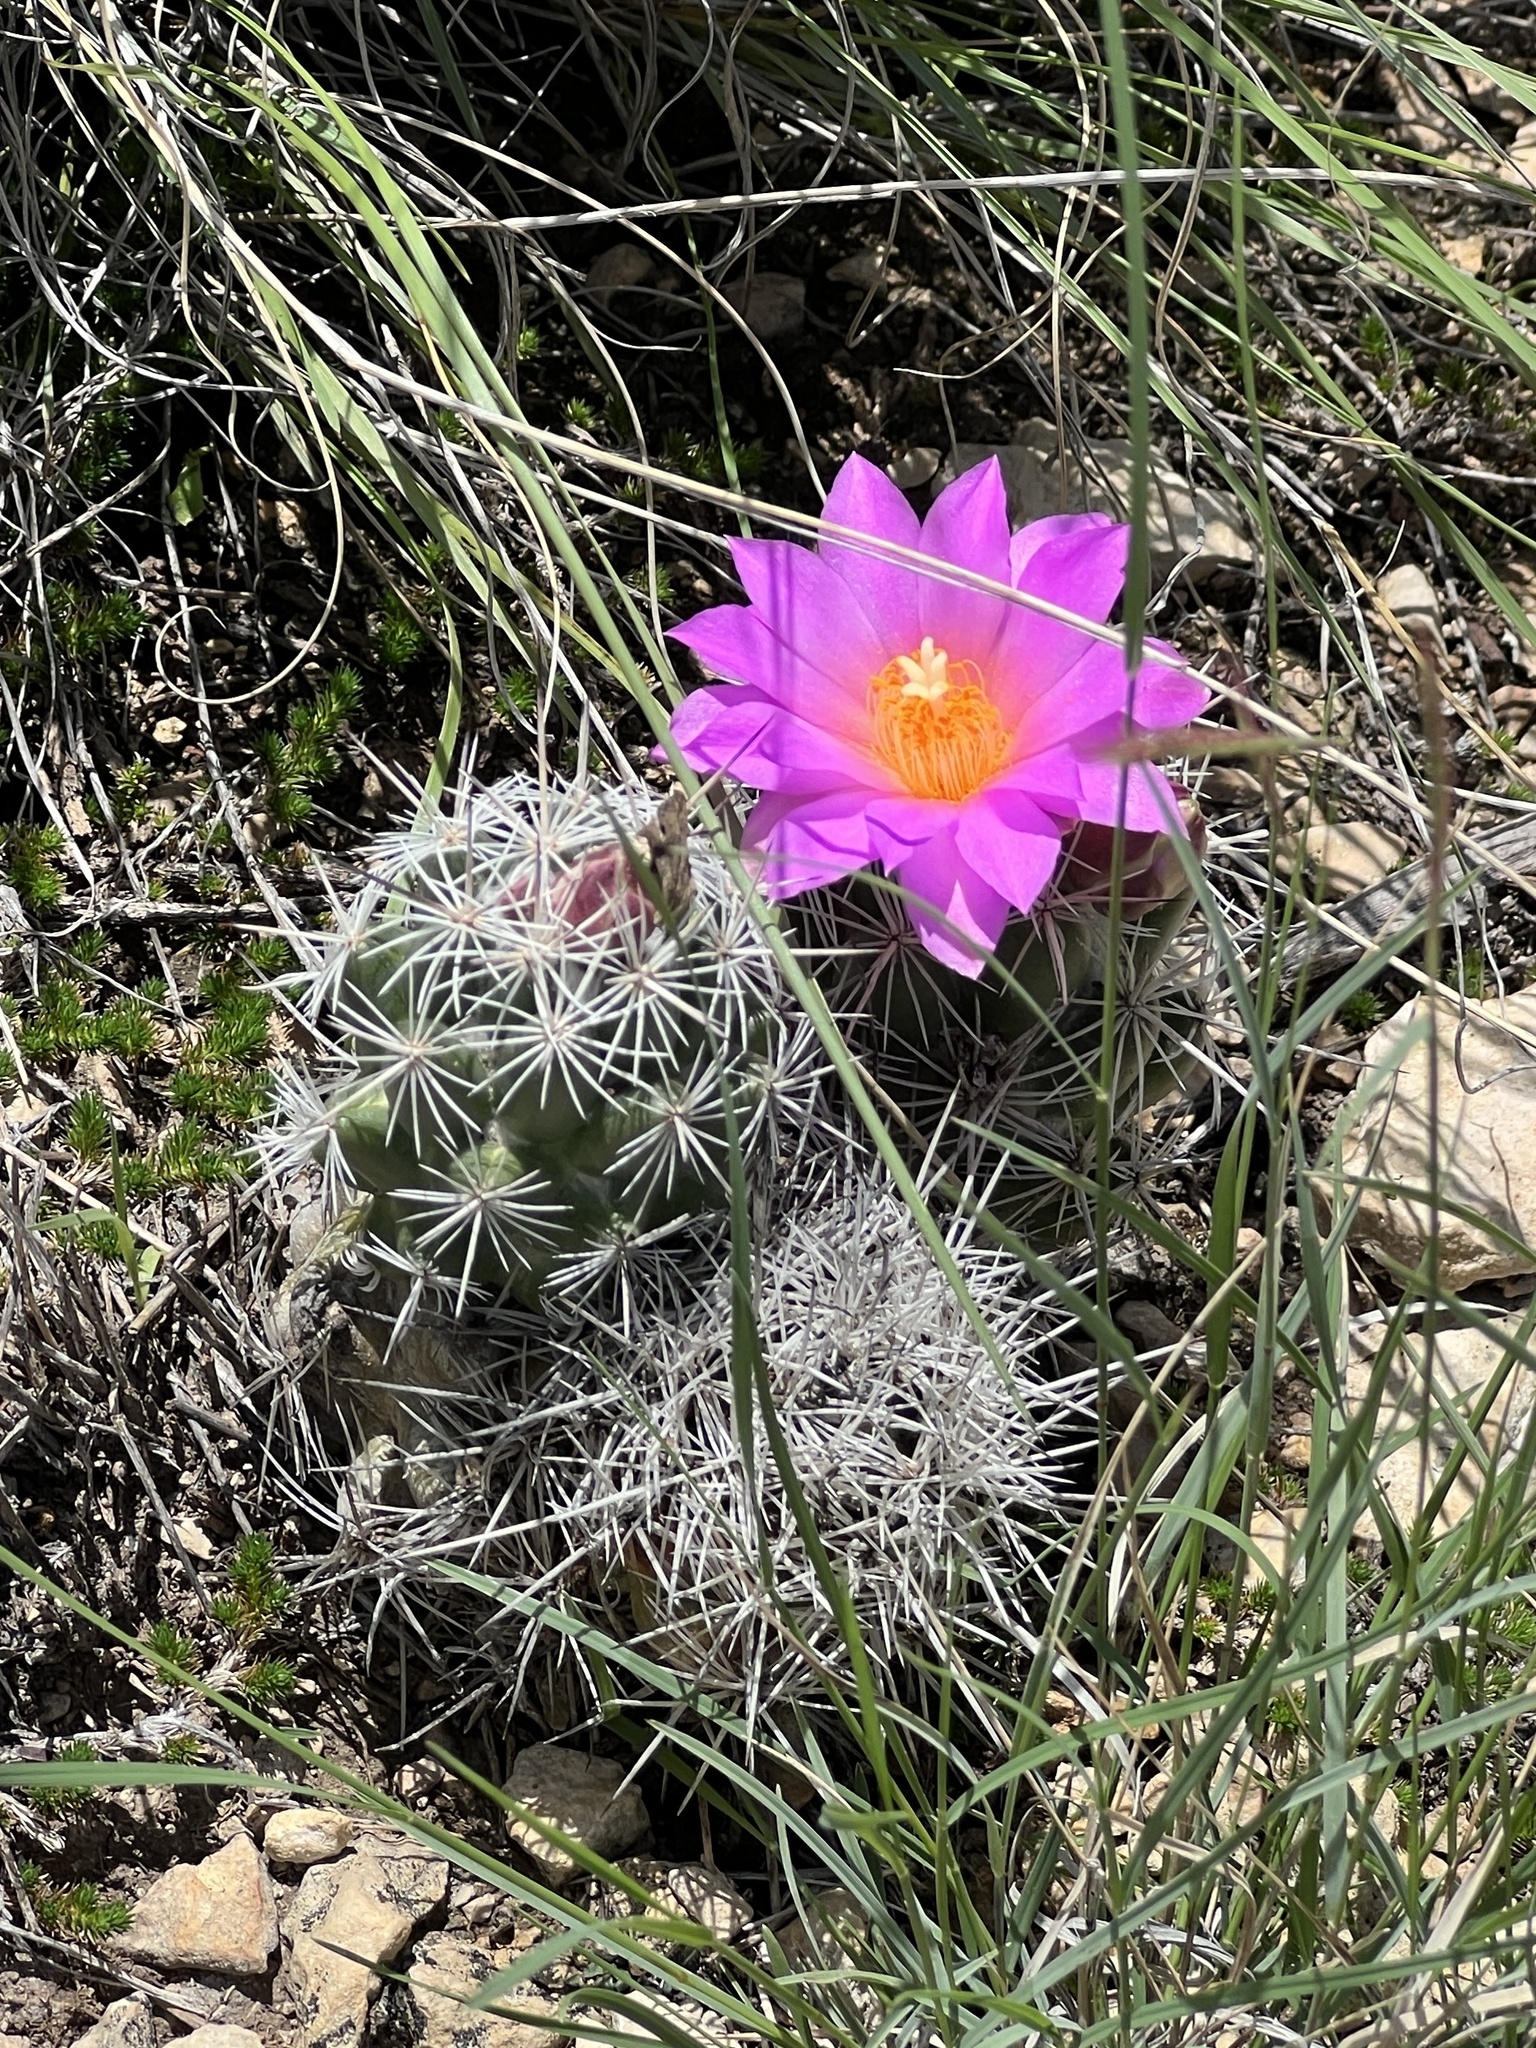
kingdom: Plantae
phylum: Tracheophyta
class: Magnoliopsida
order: Caryophyllales
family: Cactaceae
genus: Cochemiea
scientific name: Cochemiea conoidea
